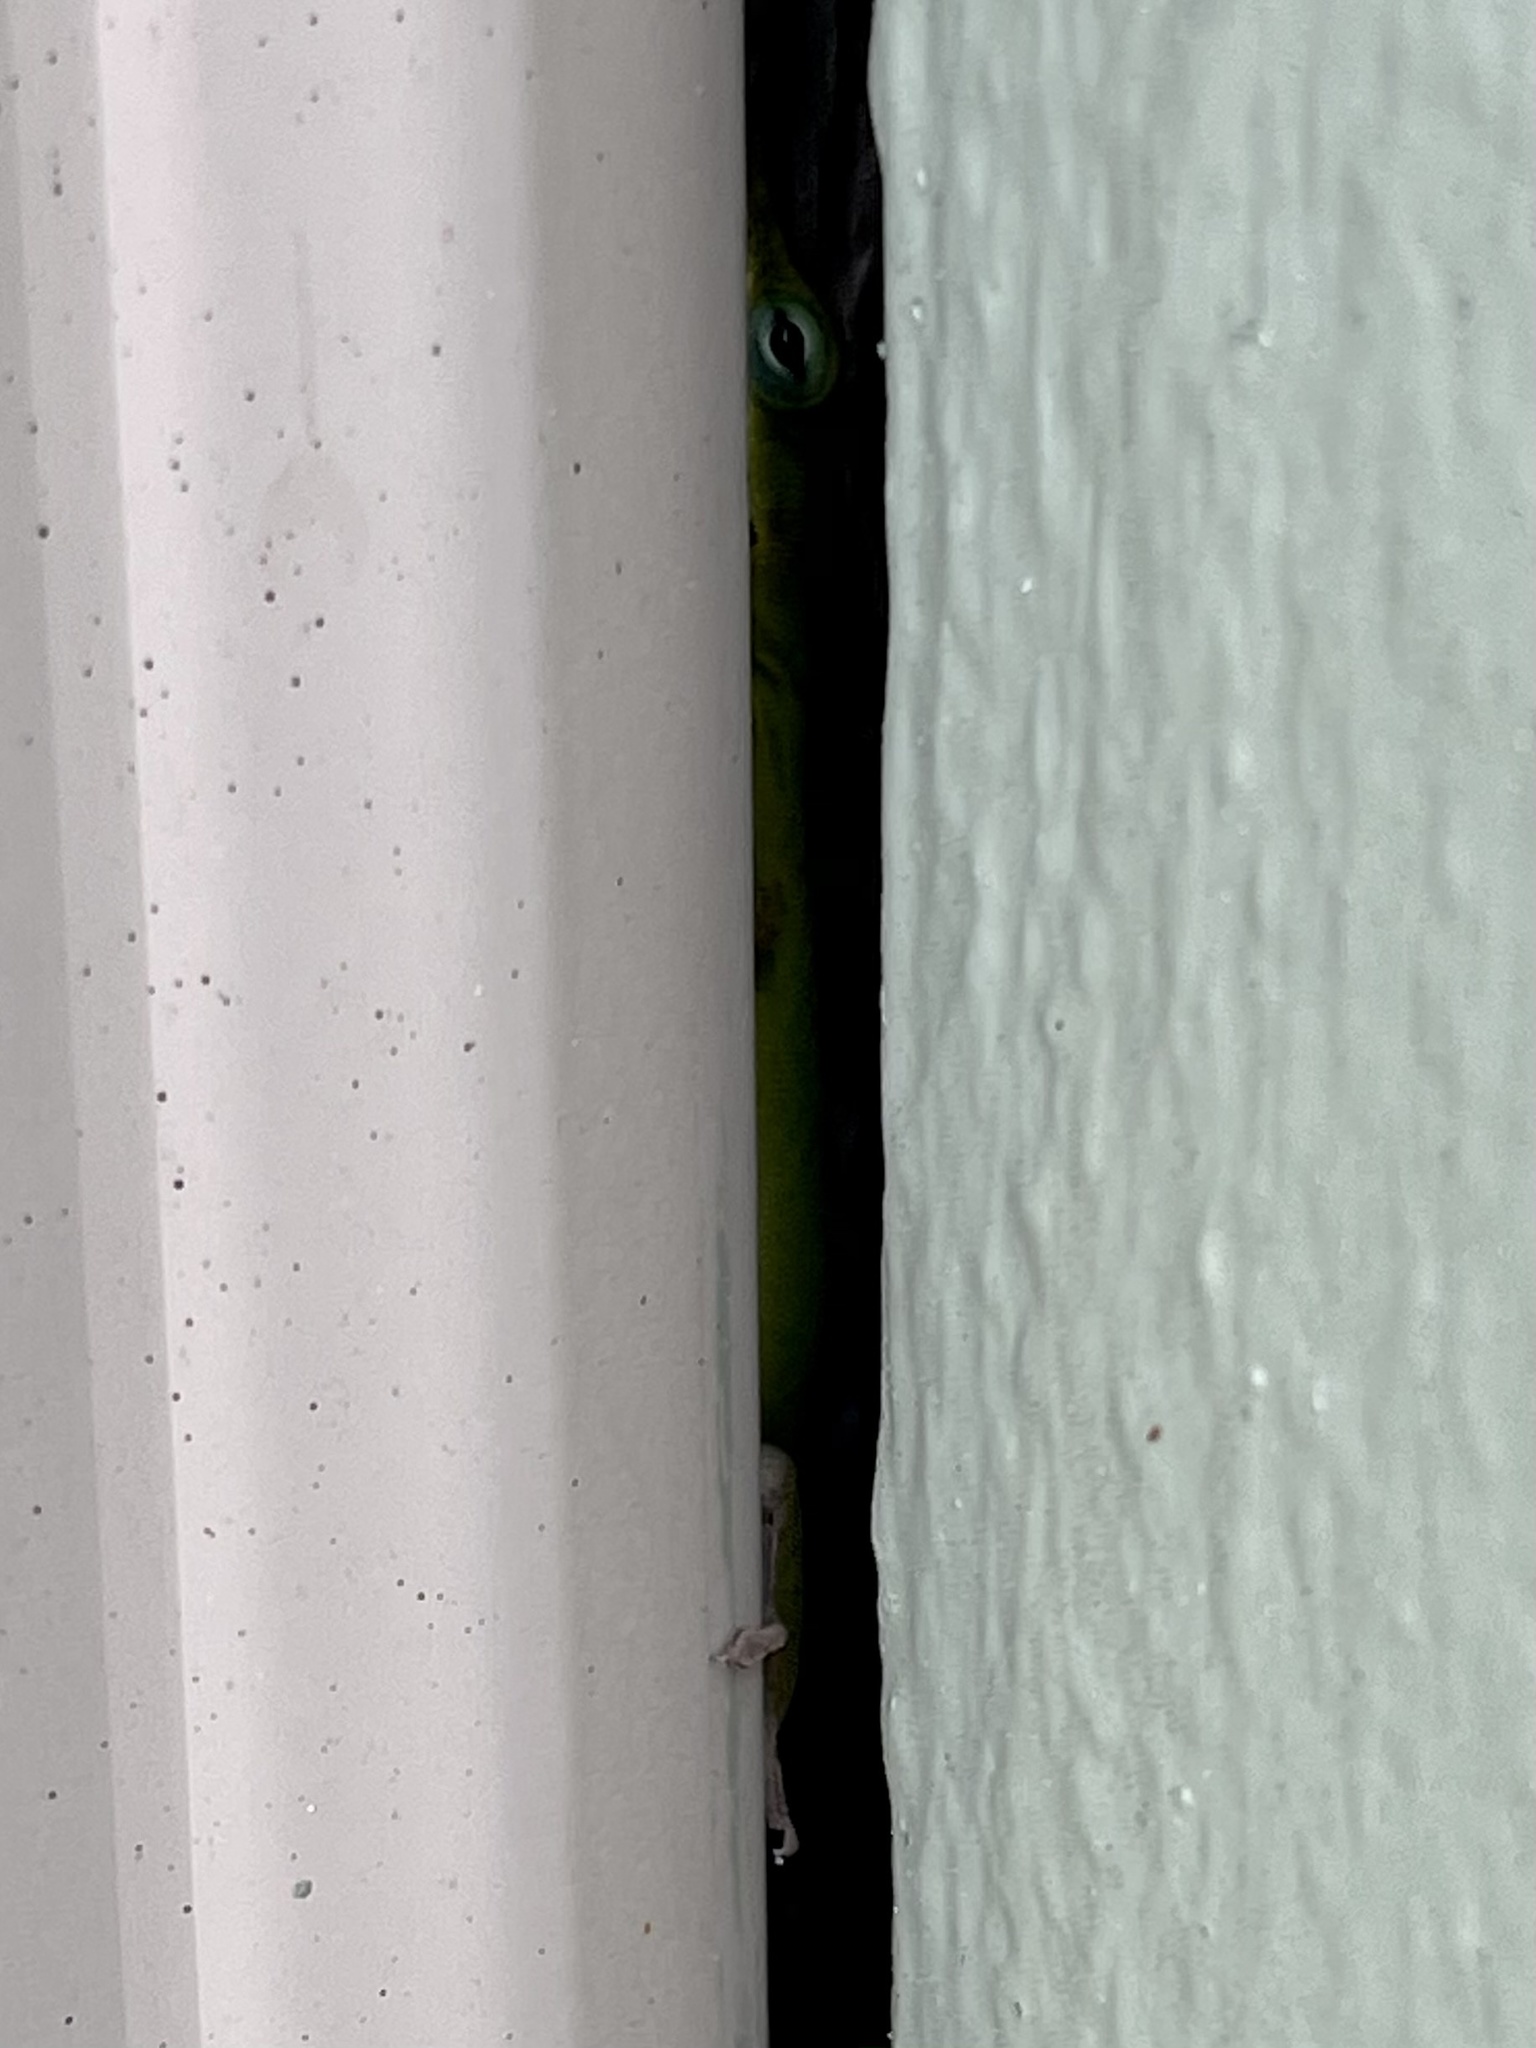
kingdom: Animalia
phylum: Chordata
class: Squamata
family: Dactyloidae
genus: Anolis
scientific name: Anolis carolinensis
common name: Green anole
